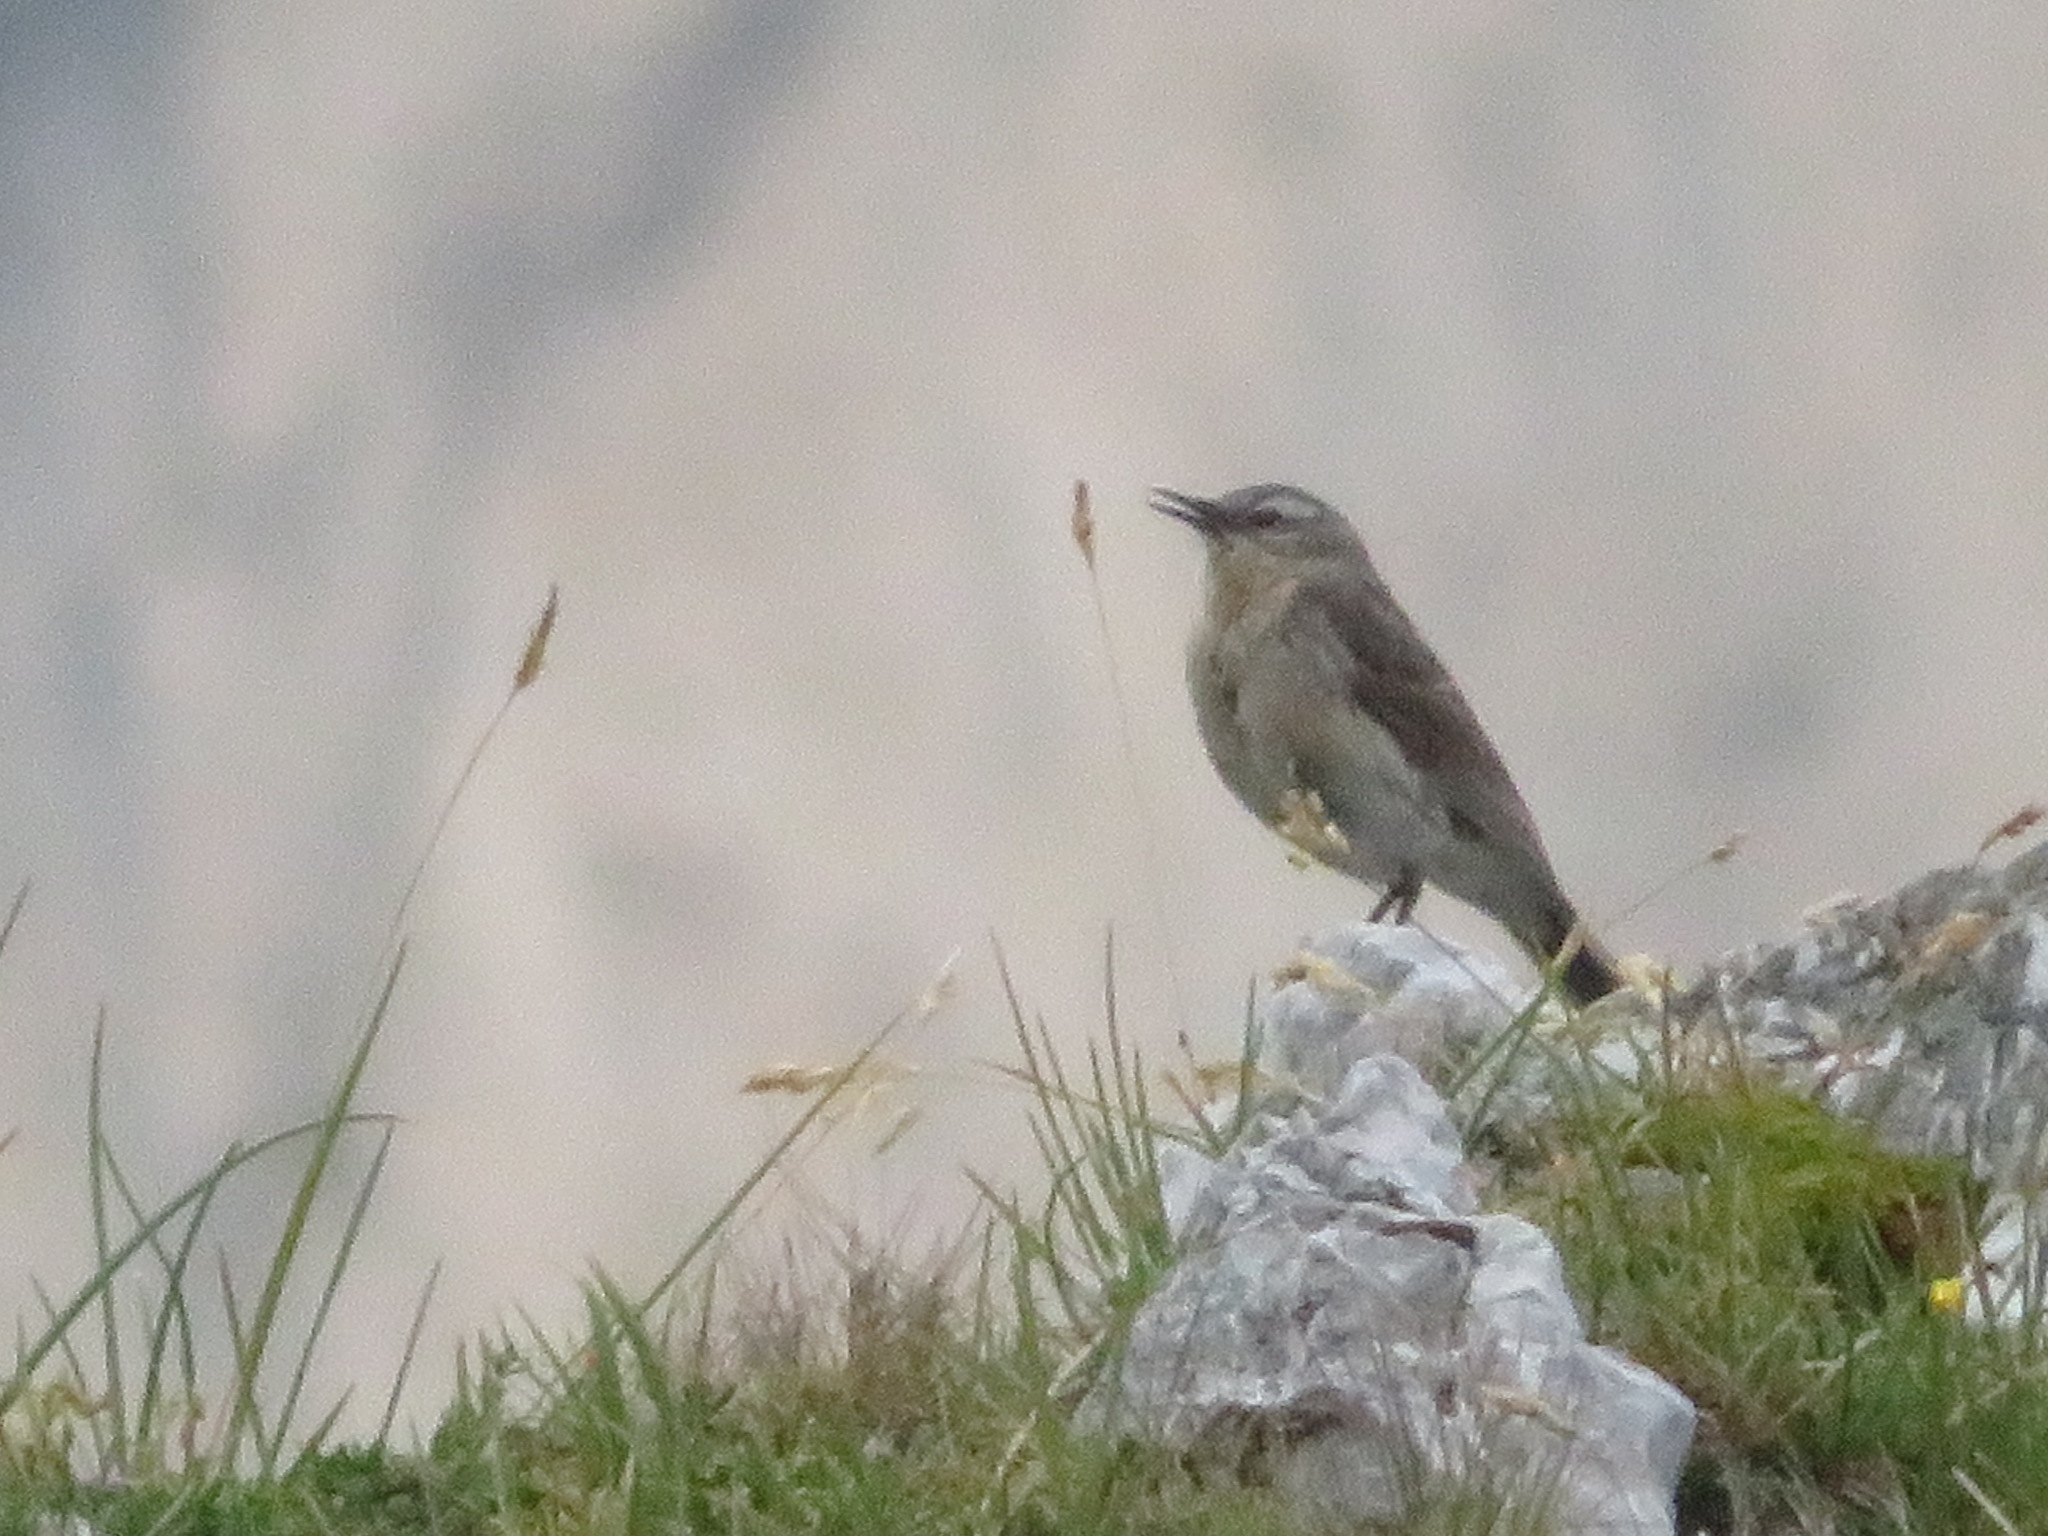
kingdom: Animalia
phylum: Chordata
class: Aves
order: Passeriformes
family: Muscicapidae
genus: Oenanthe
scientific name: Oenanthe oenanthe
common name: Northern wheatear
